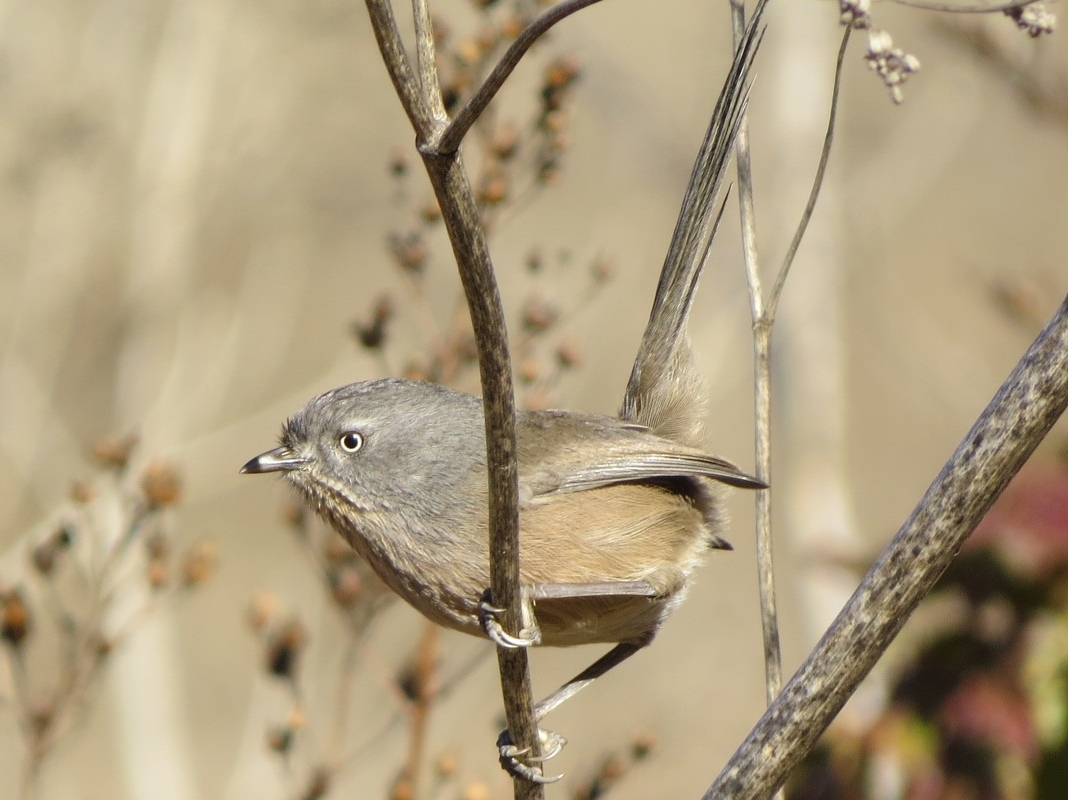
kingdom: Animalia
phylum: Chordata
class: Aves
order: Passeriformes
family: Sylviidae
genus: Chamaea
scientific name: Chamaea fasciata
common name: Wrentit
